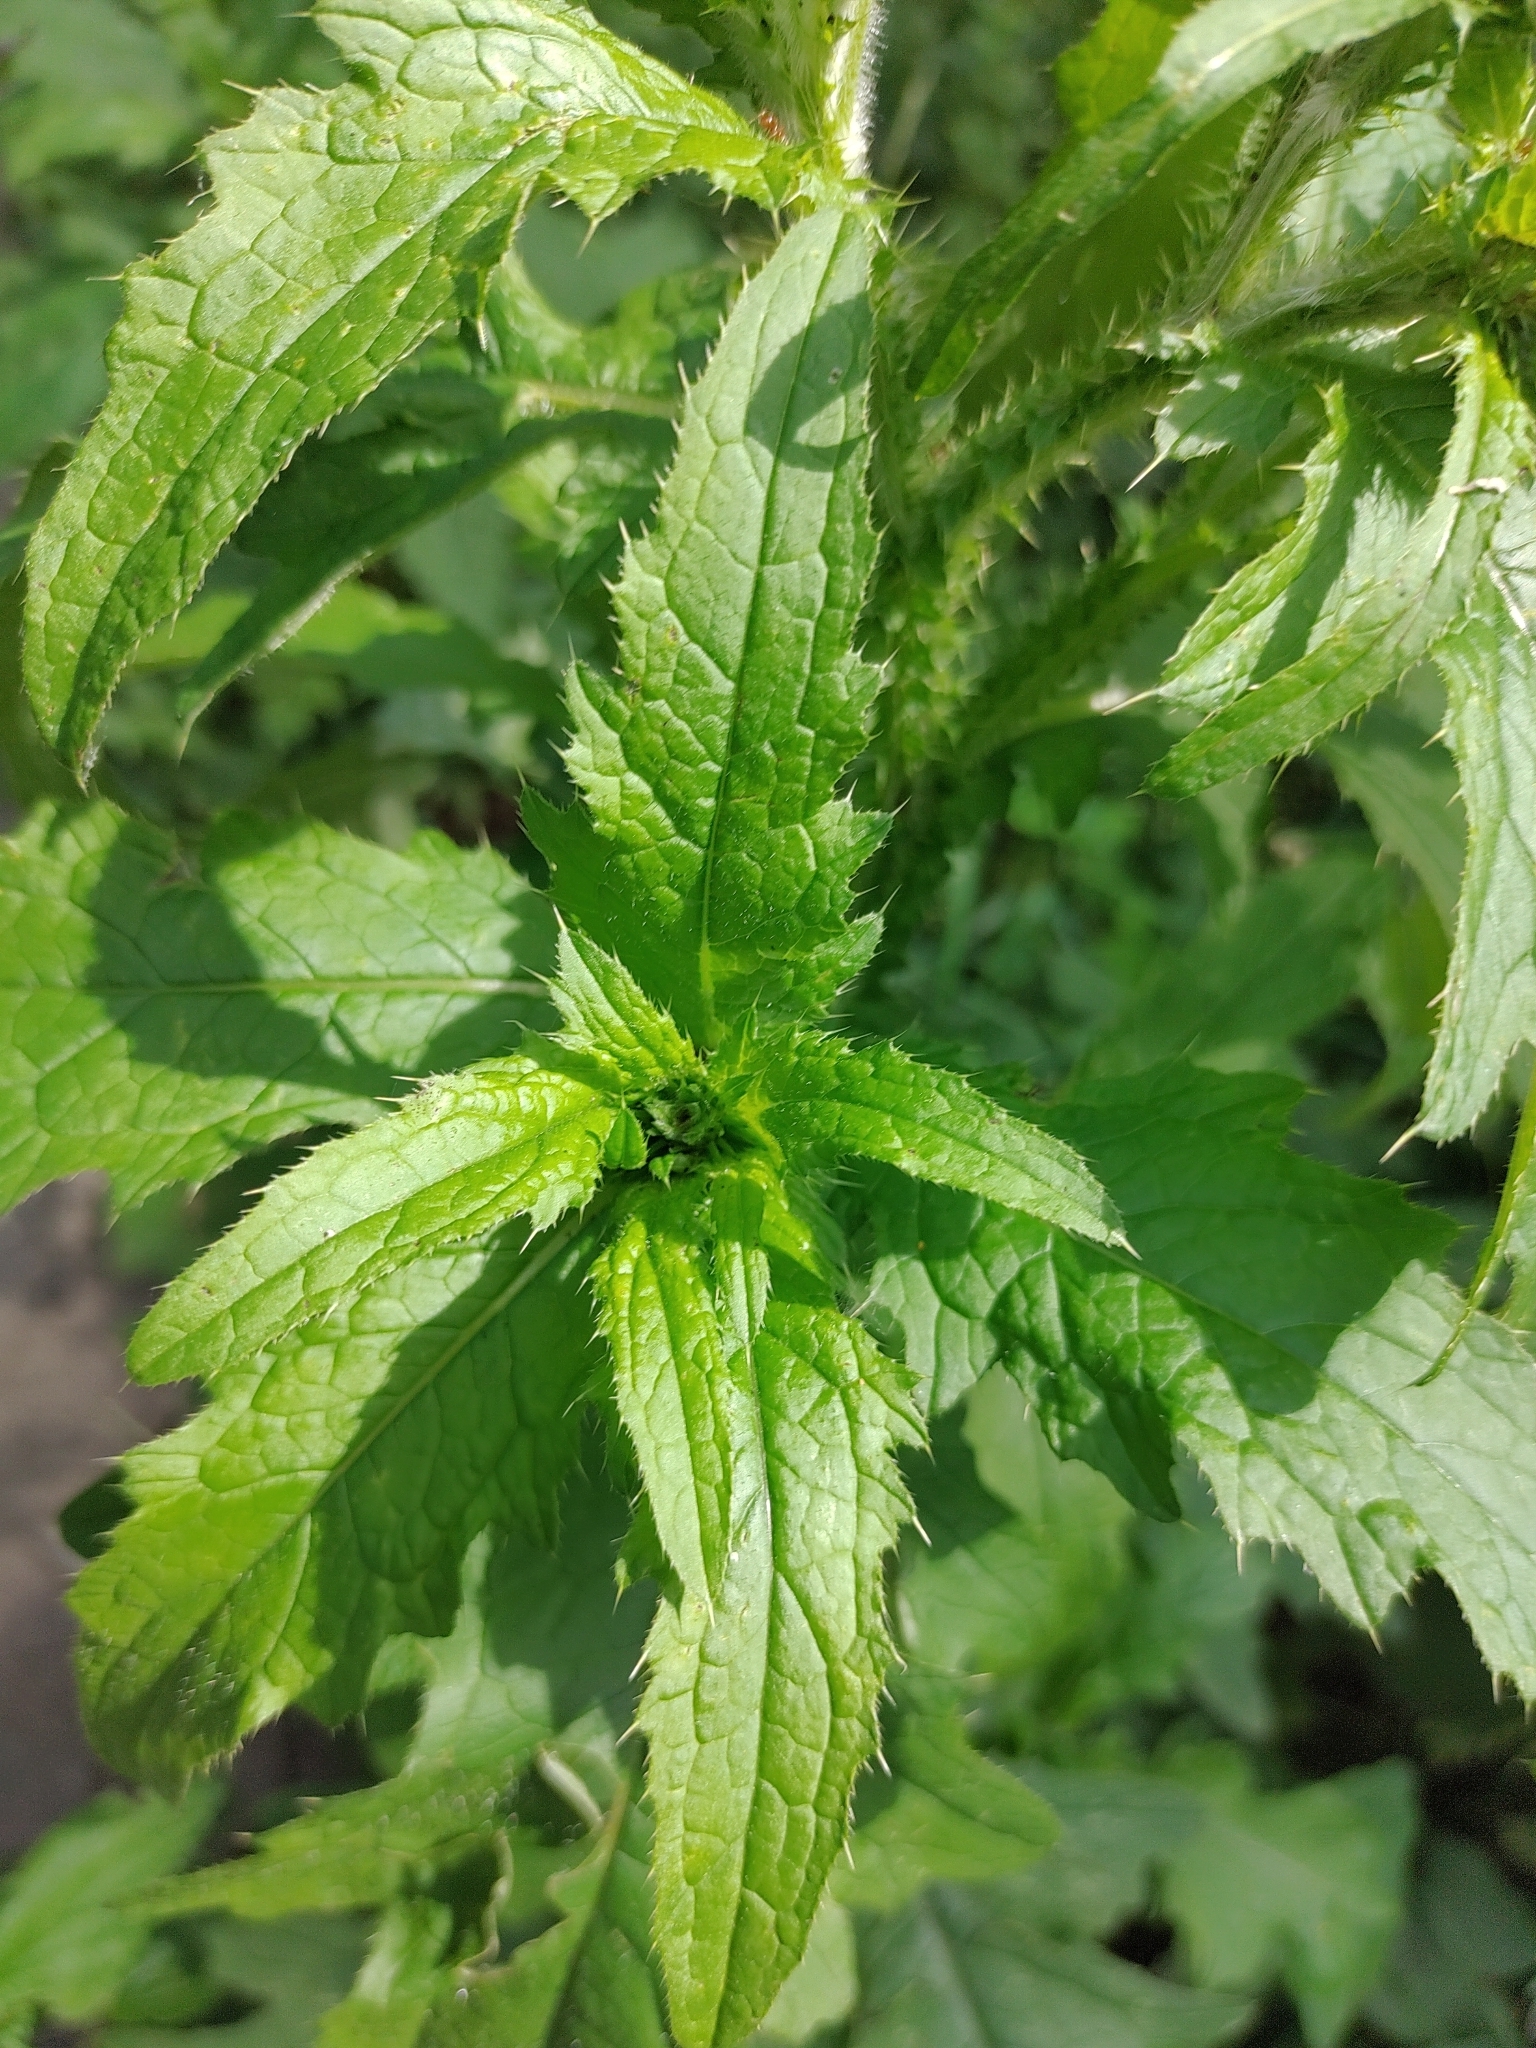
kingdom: Plantae
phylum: Tracheophyta
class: Magnoliopsida
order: Asterales
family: Asteraceae
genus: Carduus
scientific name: Carduus crispus
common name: Welted thistle
